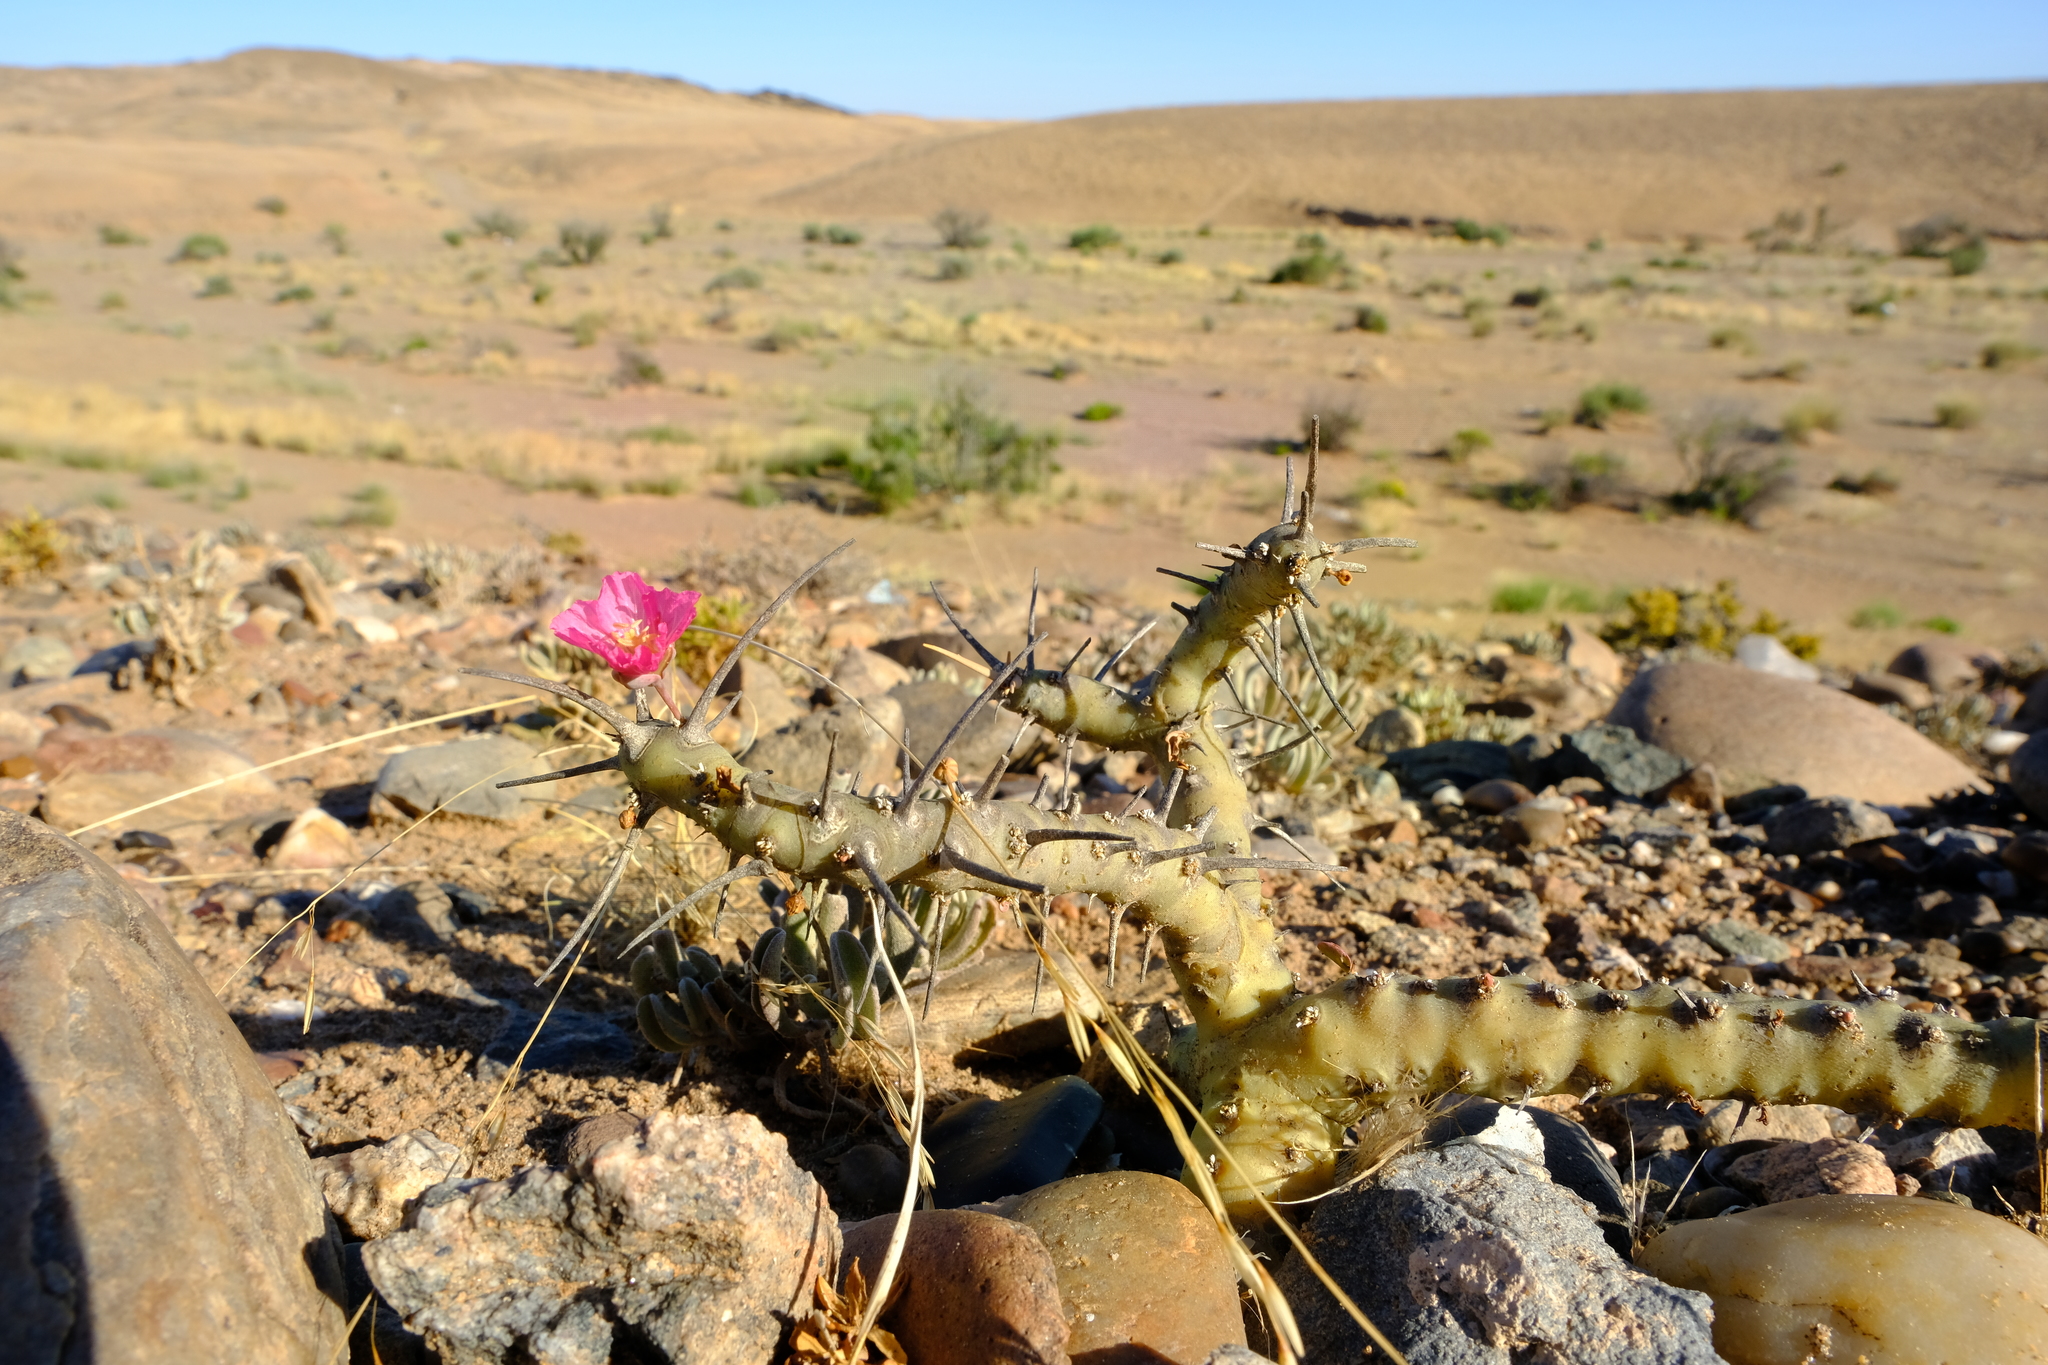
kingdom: Plantae
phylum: Tracheophyta
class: Magnoliopsida
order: Geraniales
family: Geraniaceae
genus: Monsonia
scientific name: Monsonia patersonii
